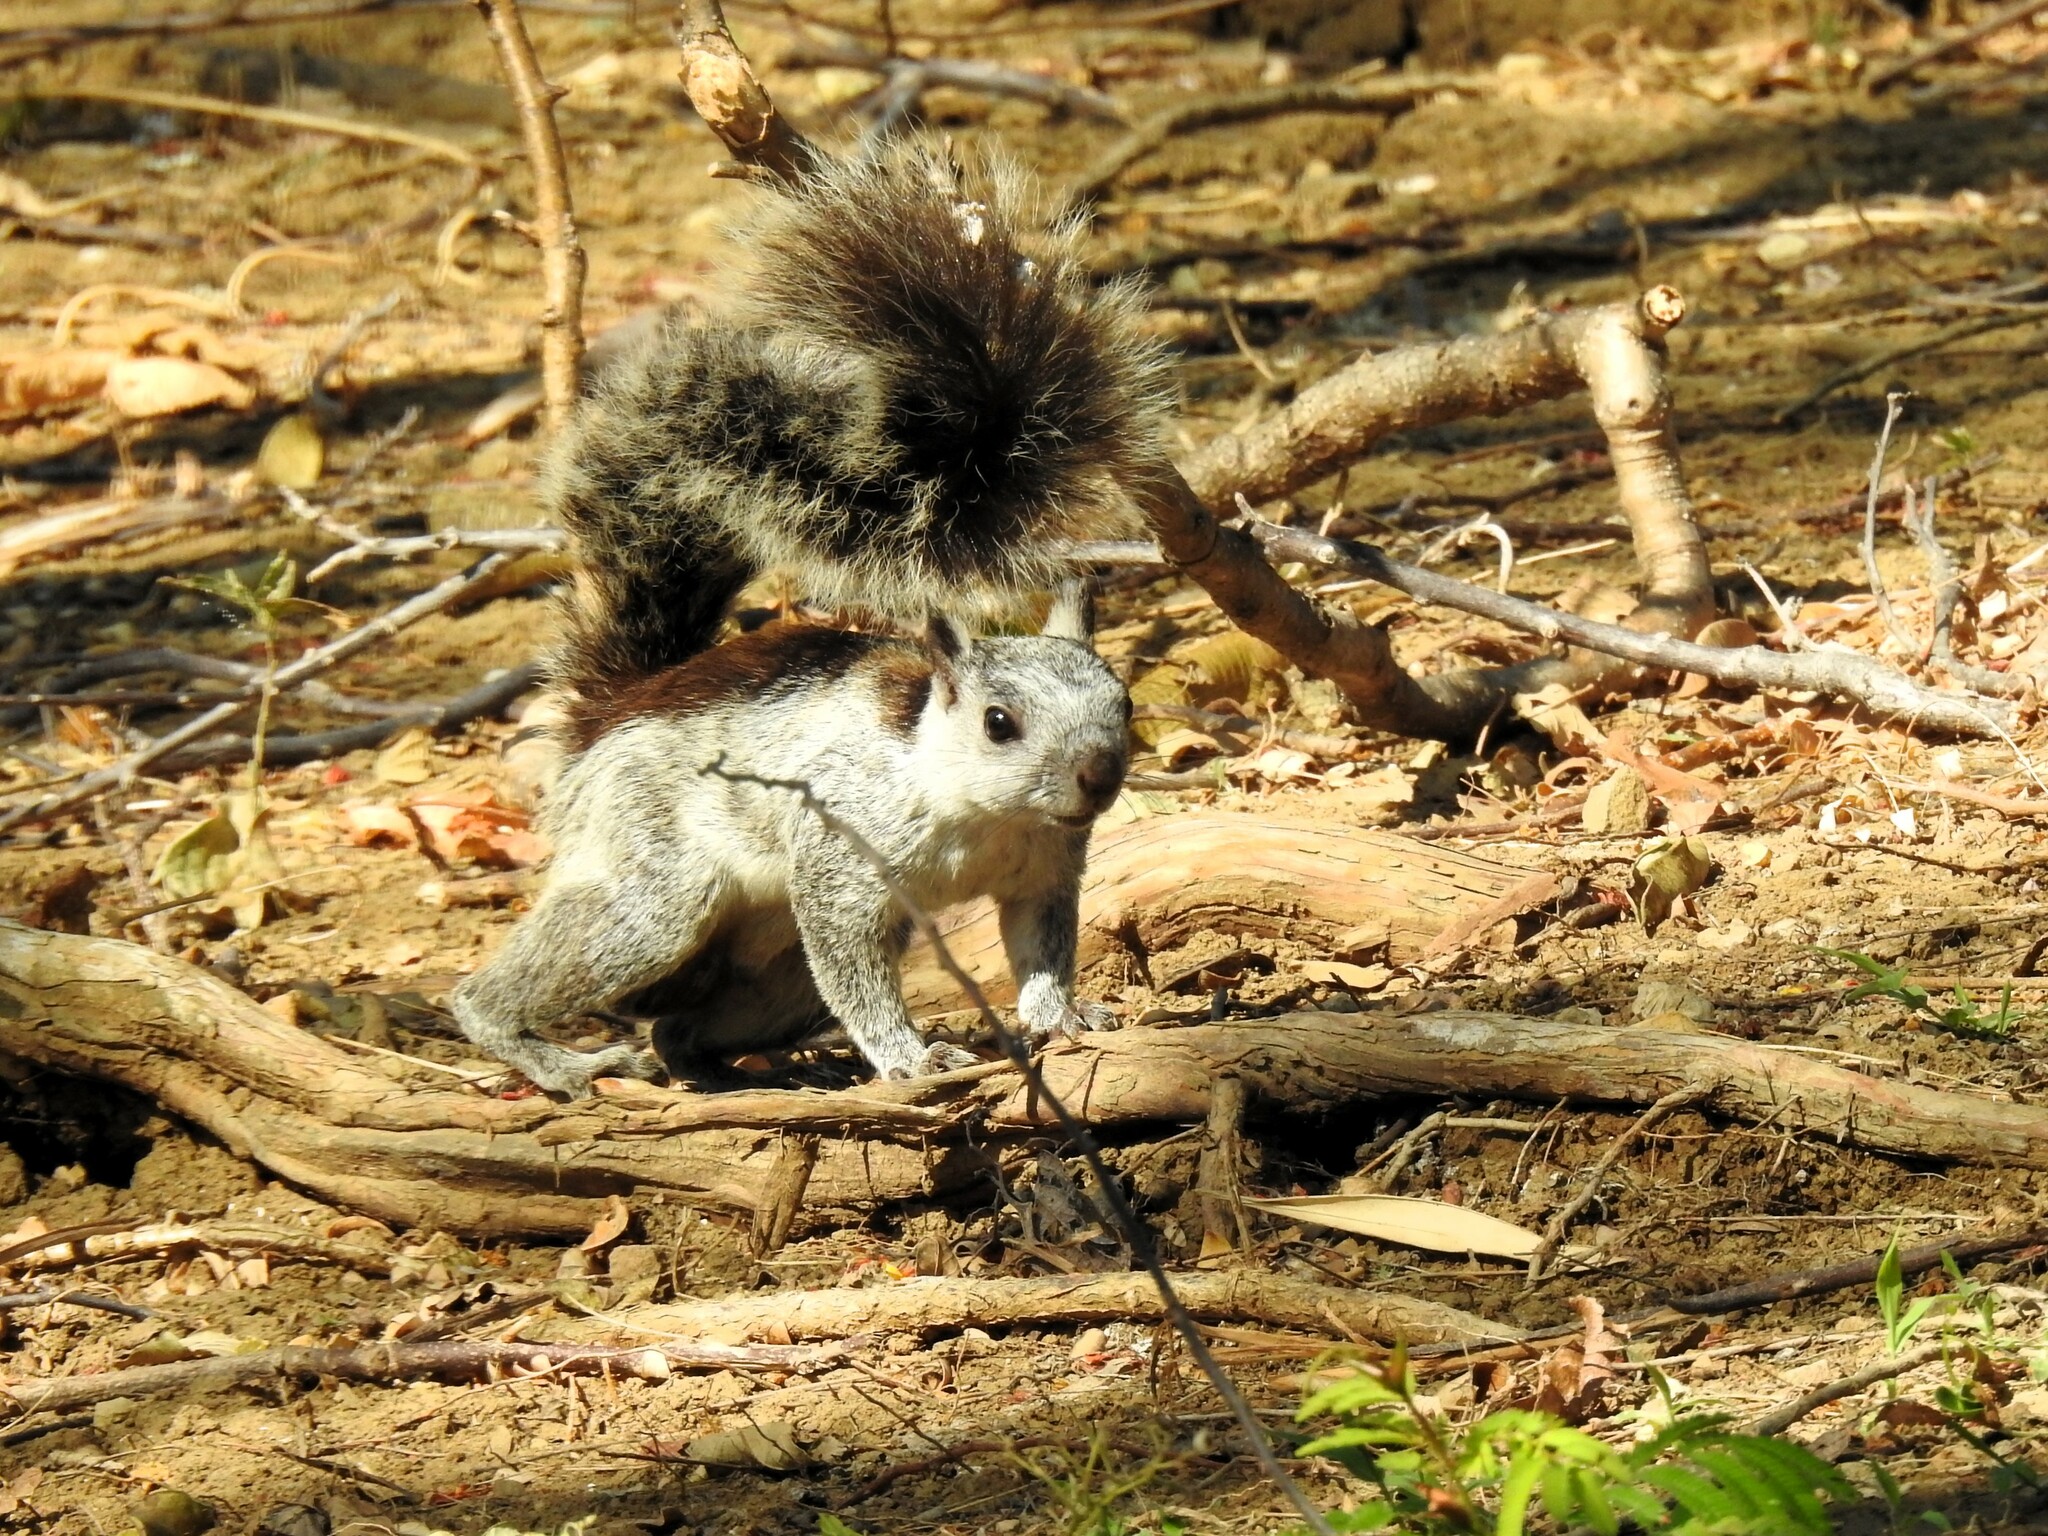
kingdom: Animalia
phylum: Chordata
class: Mammalia
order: Rodentia
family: Sciuridae
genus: Sciurus
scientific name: Sciurus variegatoides
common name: Variegated squirrel
